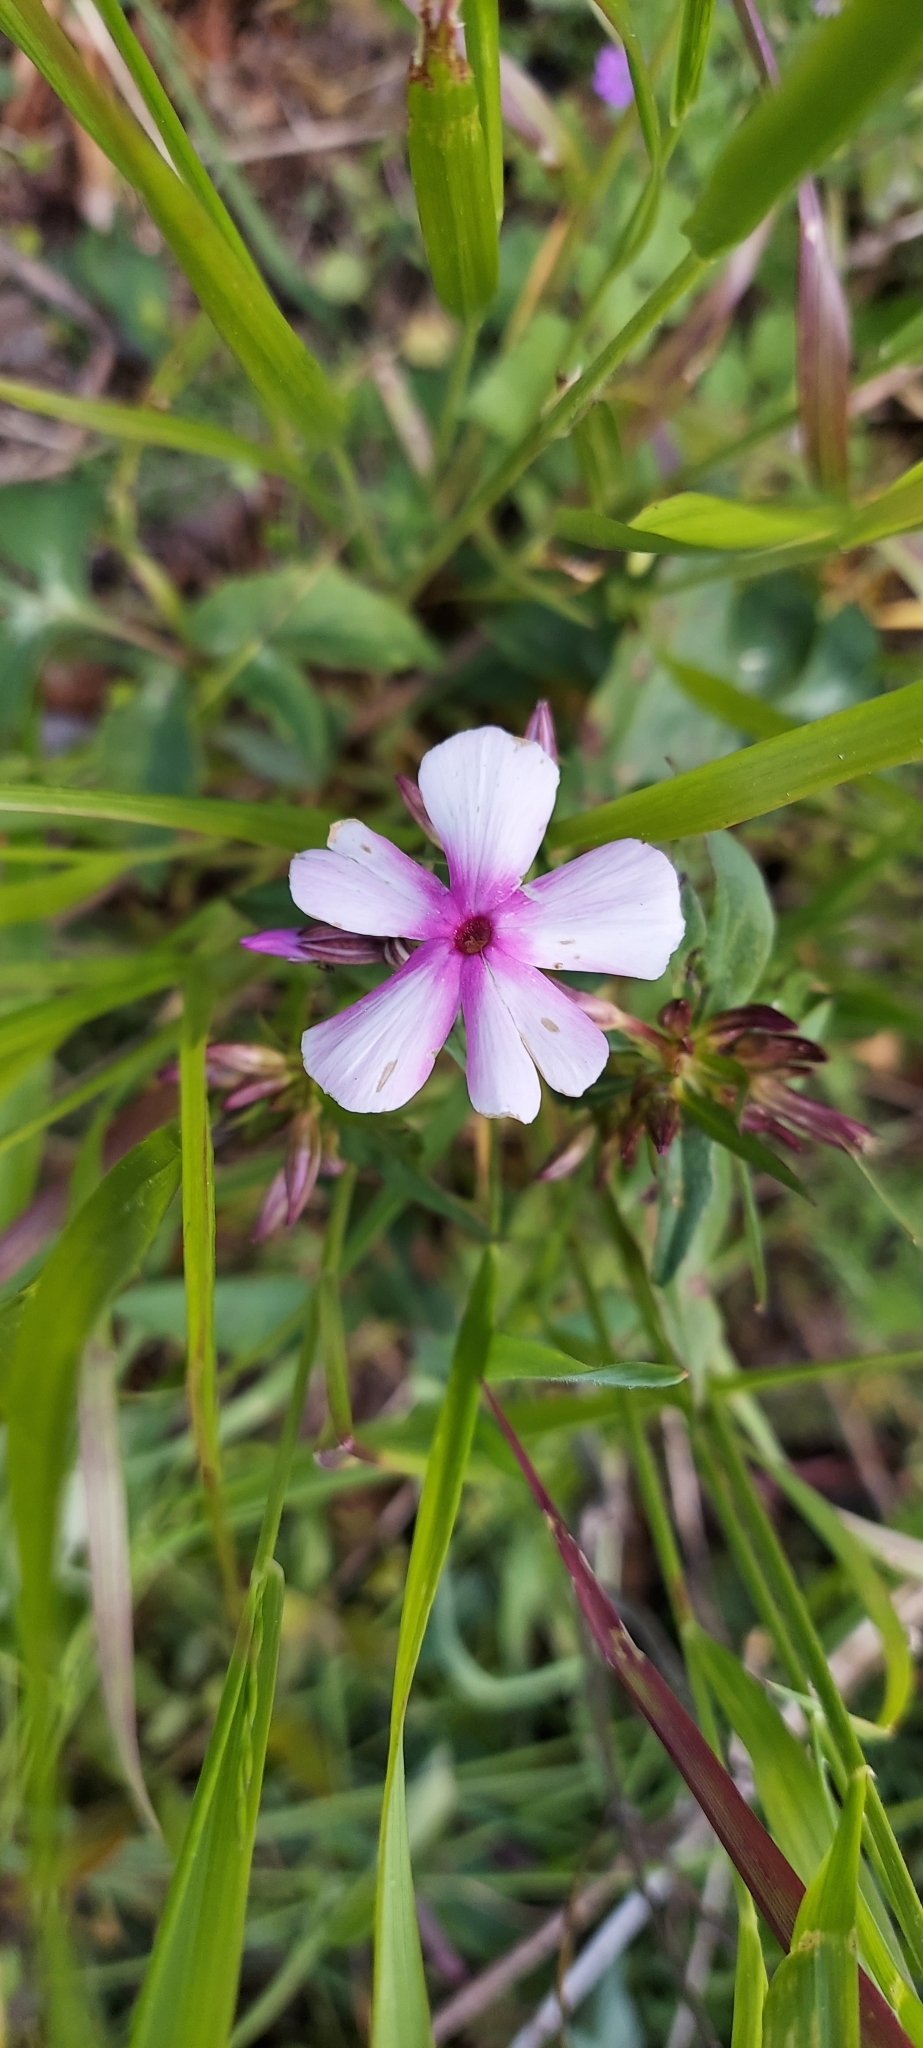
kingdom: Plantae
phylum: Tracheophyta
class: Magnoliopsida
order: Ericales
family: Polemoniaceae
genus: Phlox
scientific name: Phlox glaberrima
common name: Smooth phlox
